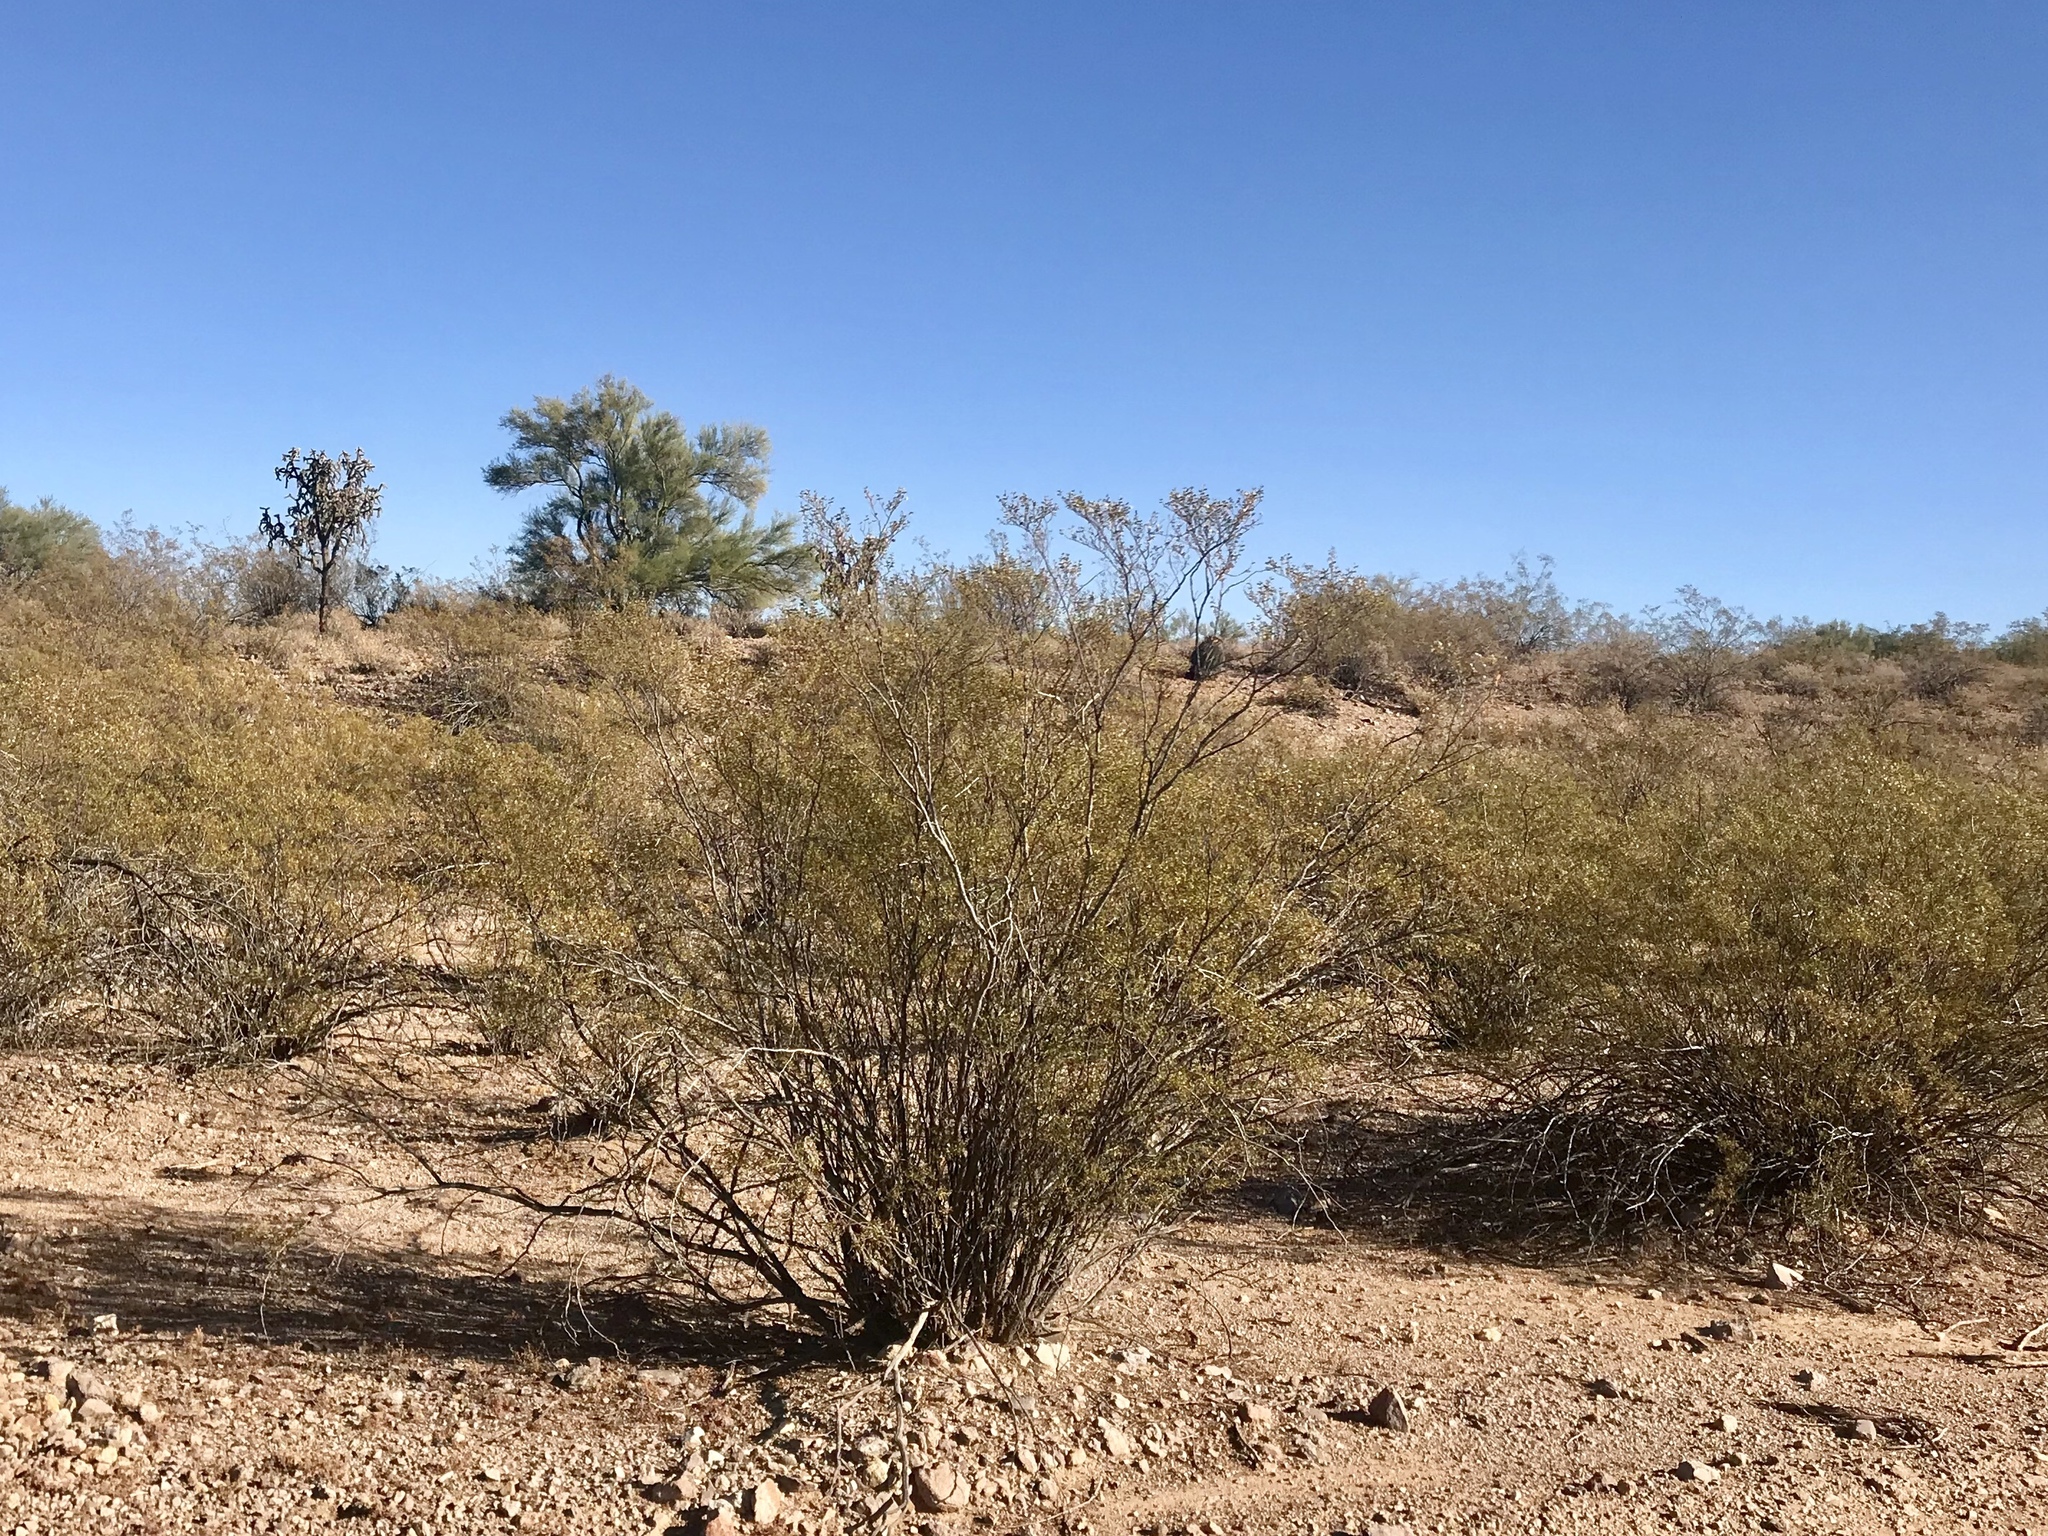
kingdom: Plantae
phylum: Tracheophyta
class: Magnoliopsida
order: Zygophyllales
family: Zygophyllaceae
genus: Larrea
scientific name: Larrea tridentata
